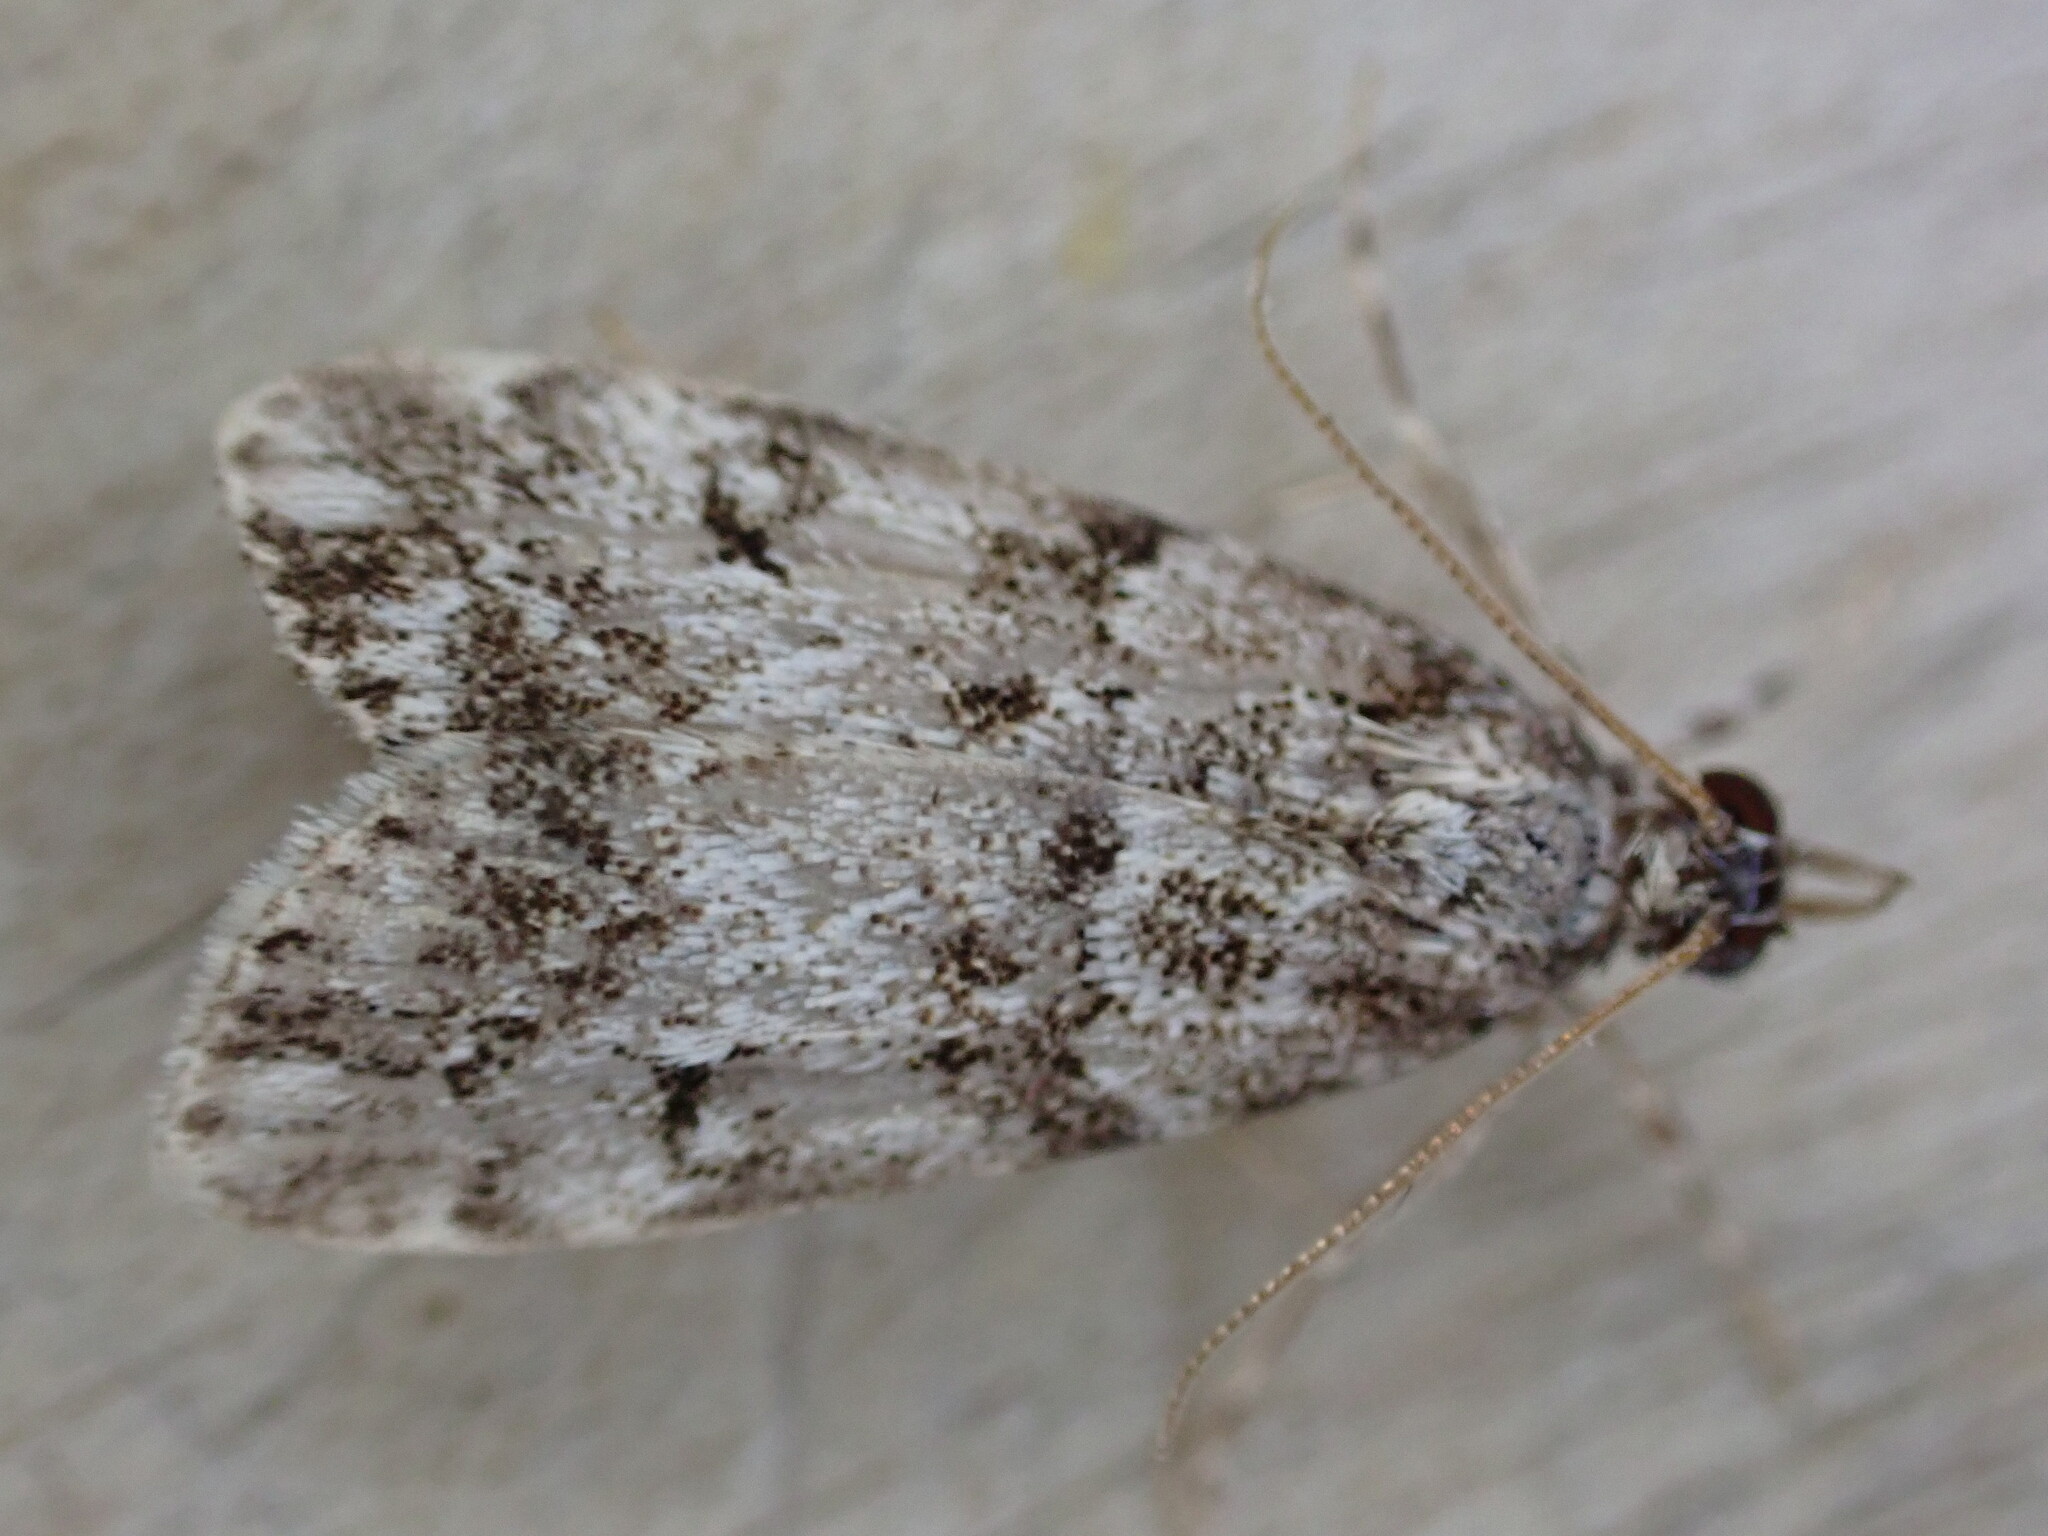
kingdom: Animalia
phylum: Arthropoda
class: Insecta
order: Lepidoptera
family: Crambidae
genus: Eudonia
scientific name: Eudonia lacustrata
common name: Little grey
